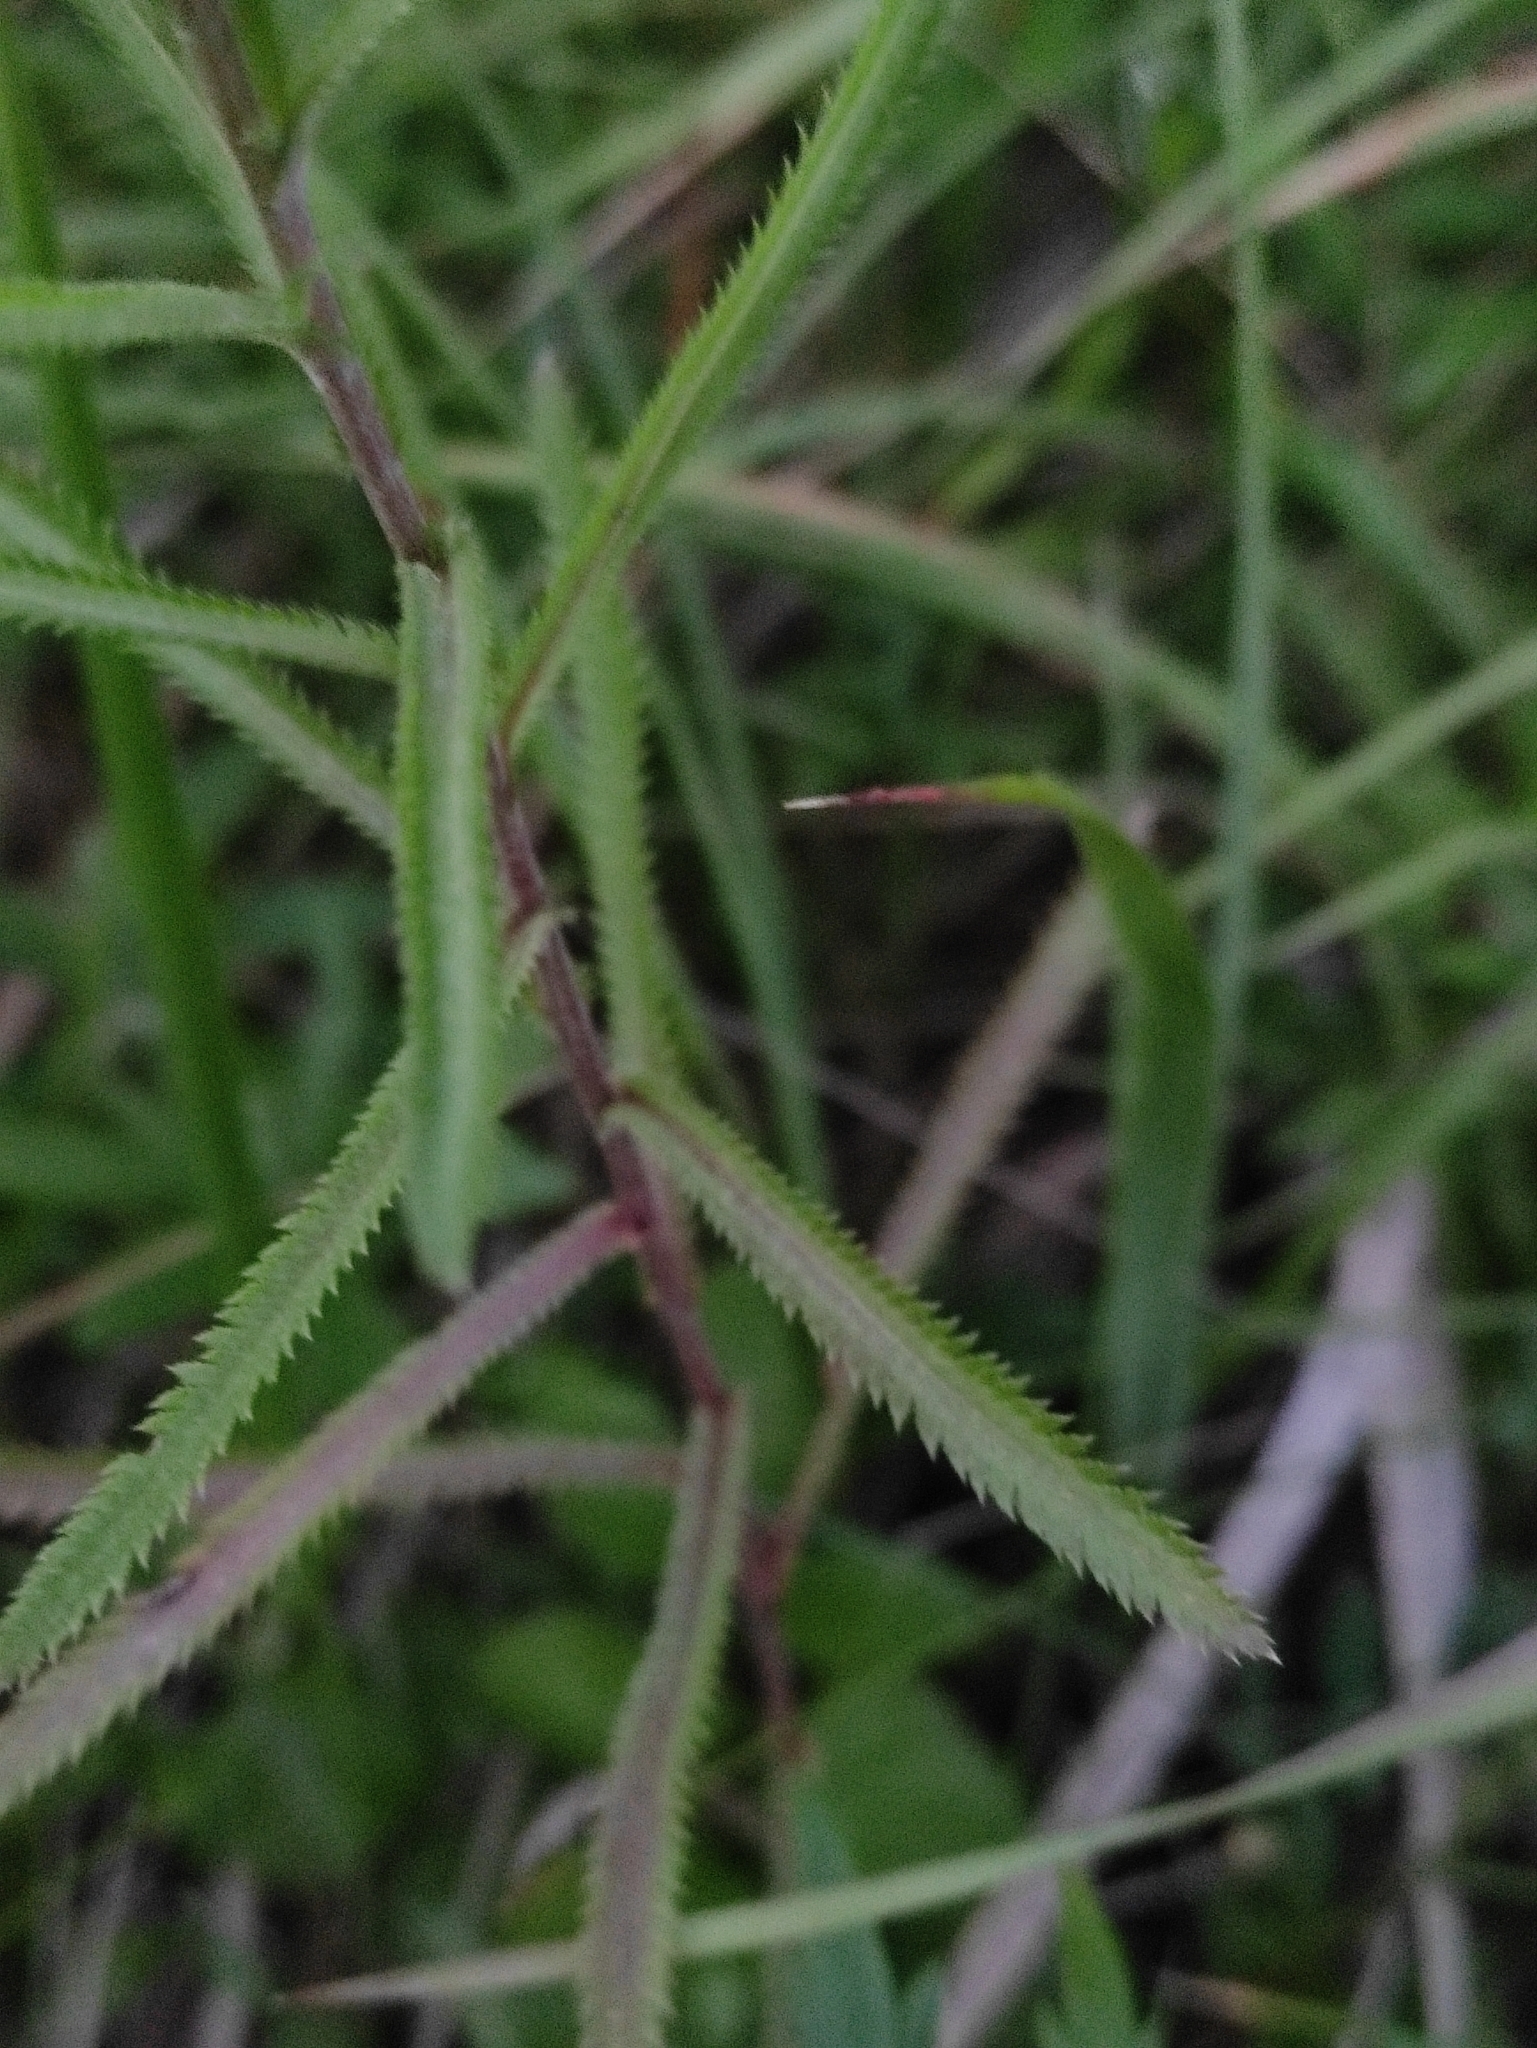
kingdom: Plantae
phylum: Tracheophyta
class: Magnoliopsida
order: Asterales
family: Asteraceae
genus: Achillea
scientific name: Achillea alpina
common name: Siberian yarrow
